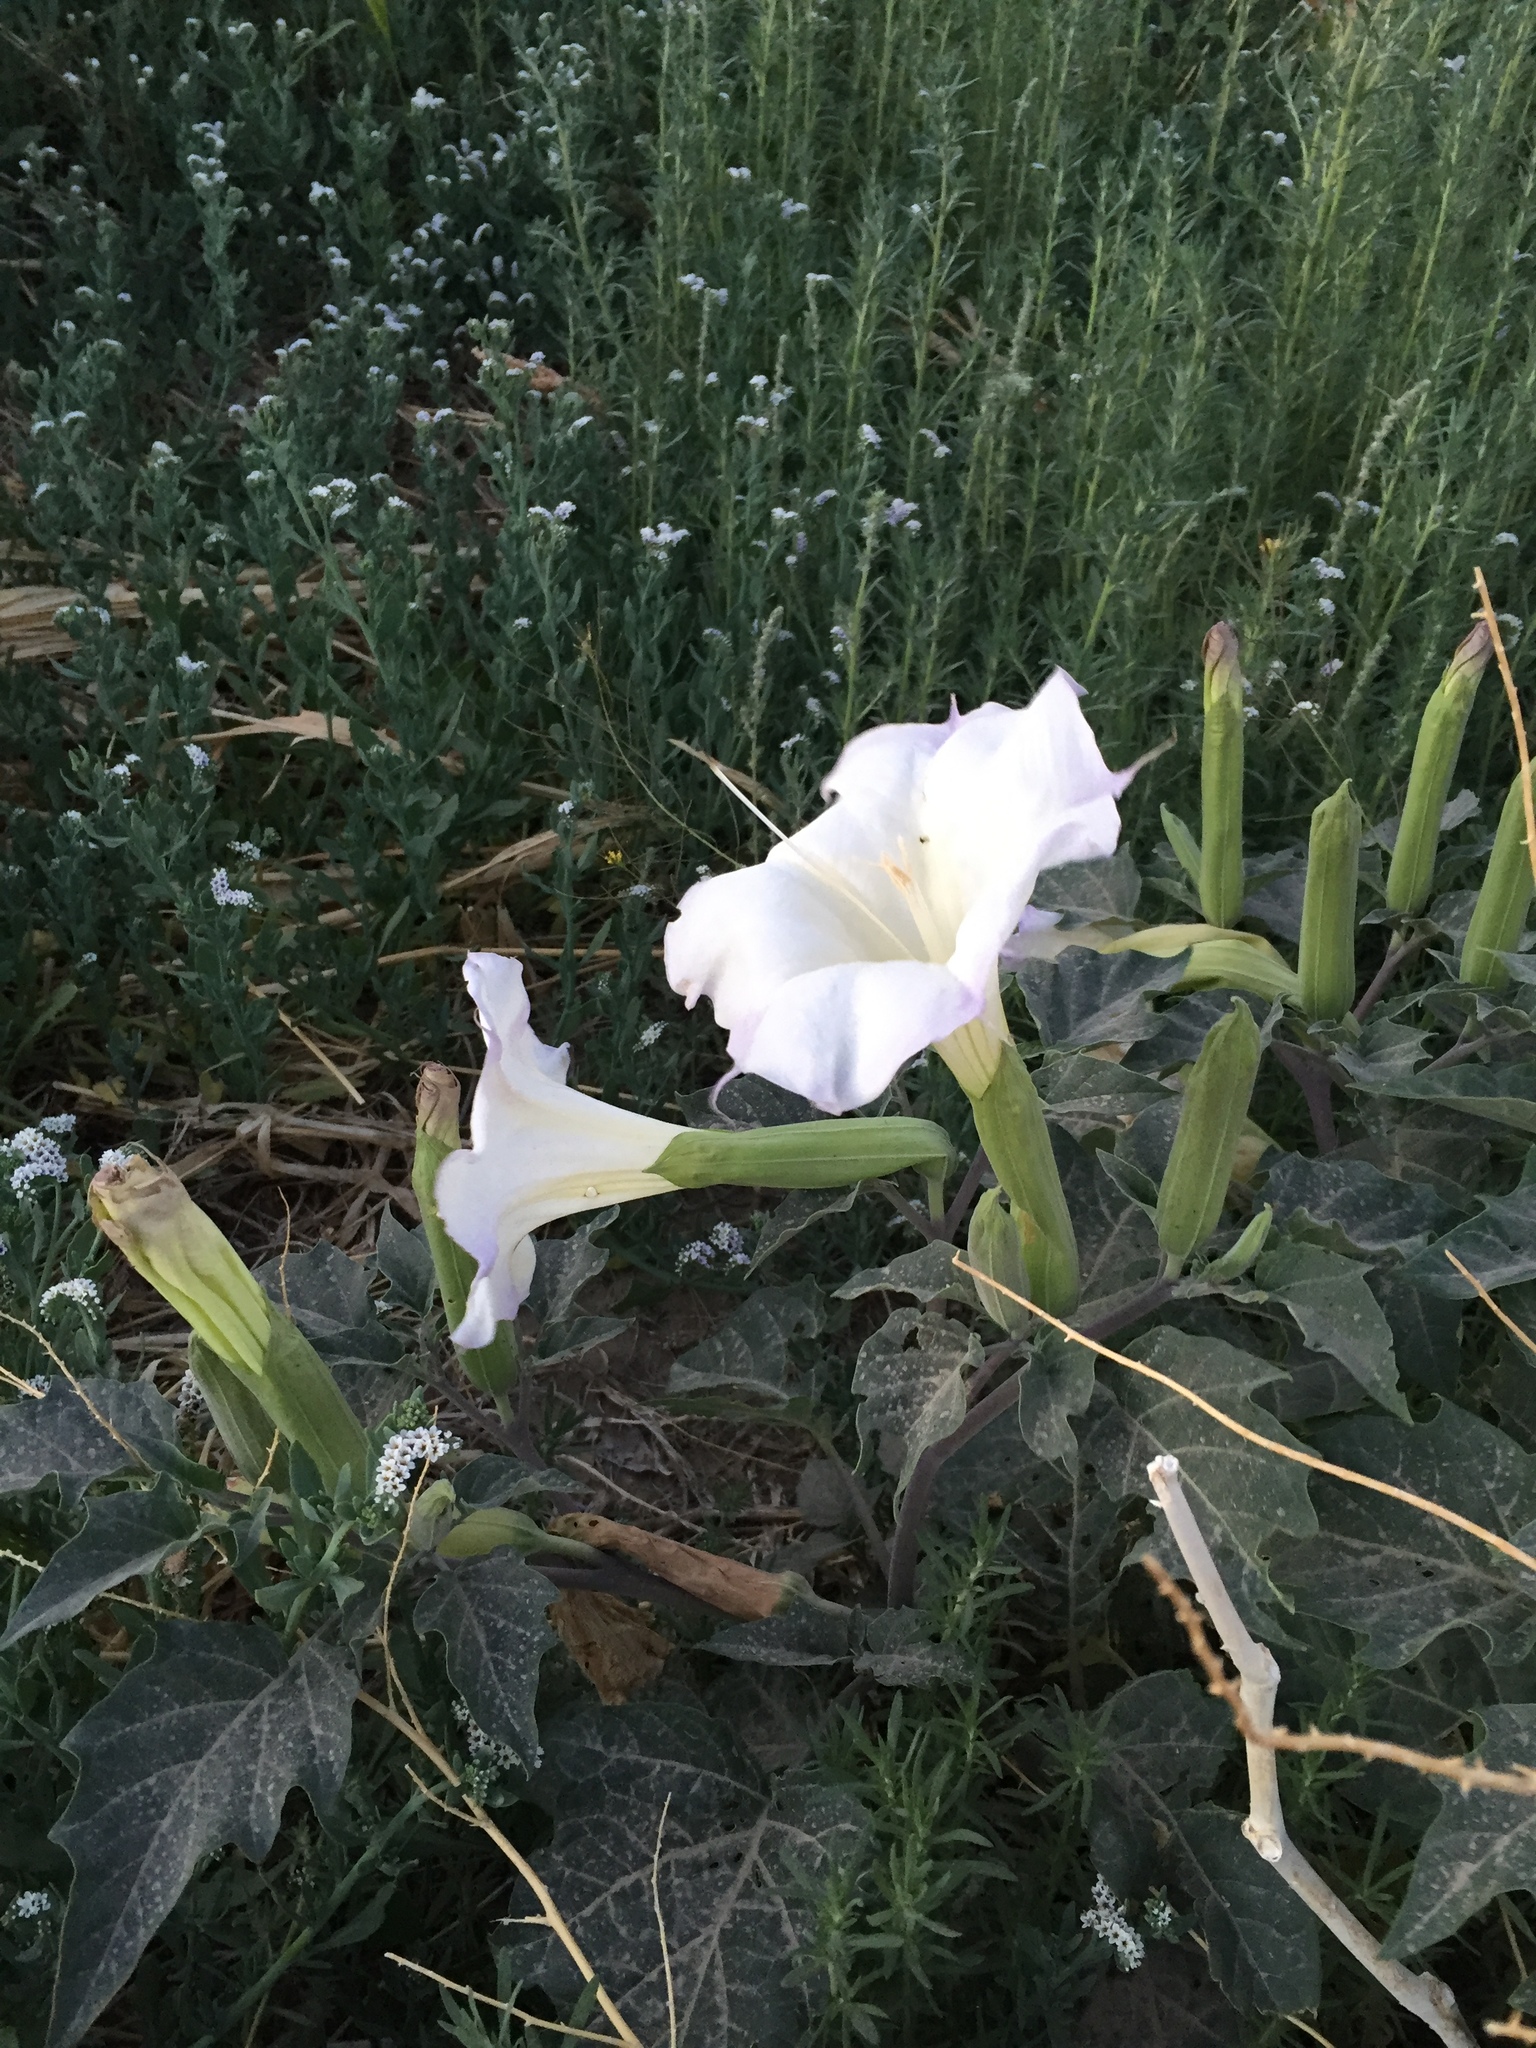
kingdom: Plantae
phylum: Tracheophyta
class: Magnoliopsida
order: Solanales
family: Solanaceae
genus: Datura
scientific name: Datura wrightii
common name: Sacred thorn-apple
